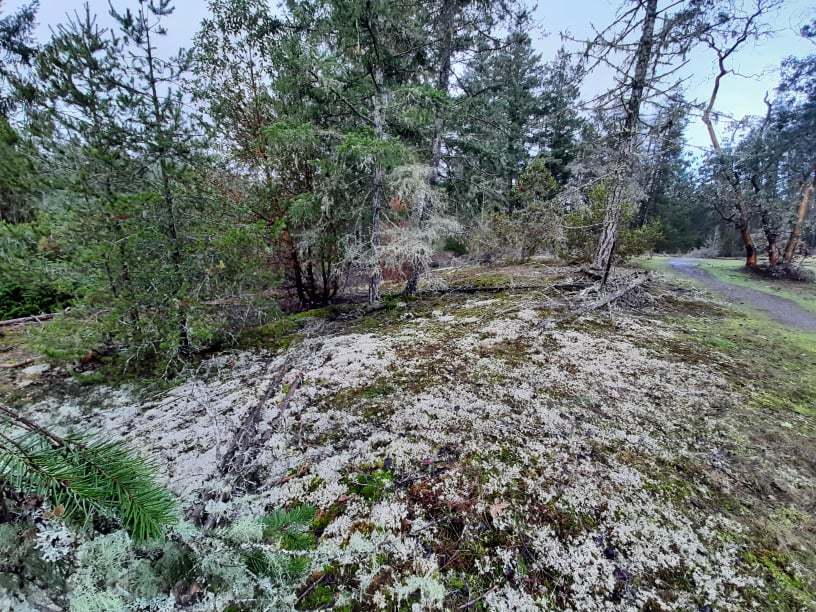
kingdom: Plantae
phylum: Bryophyta
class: Bryopsida
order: Buxbaumiales
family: Buxbaumiaceae
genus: Buxbaumia
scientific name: Buxbaumia aphylla
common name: Brown shield-moss
